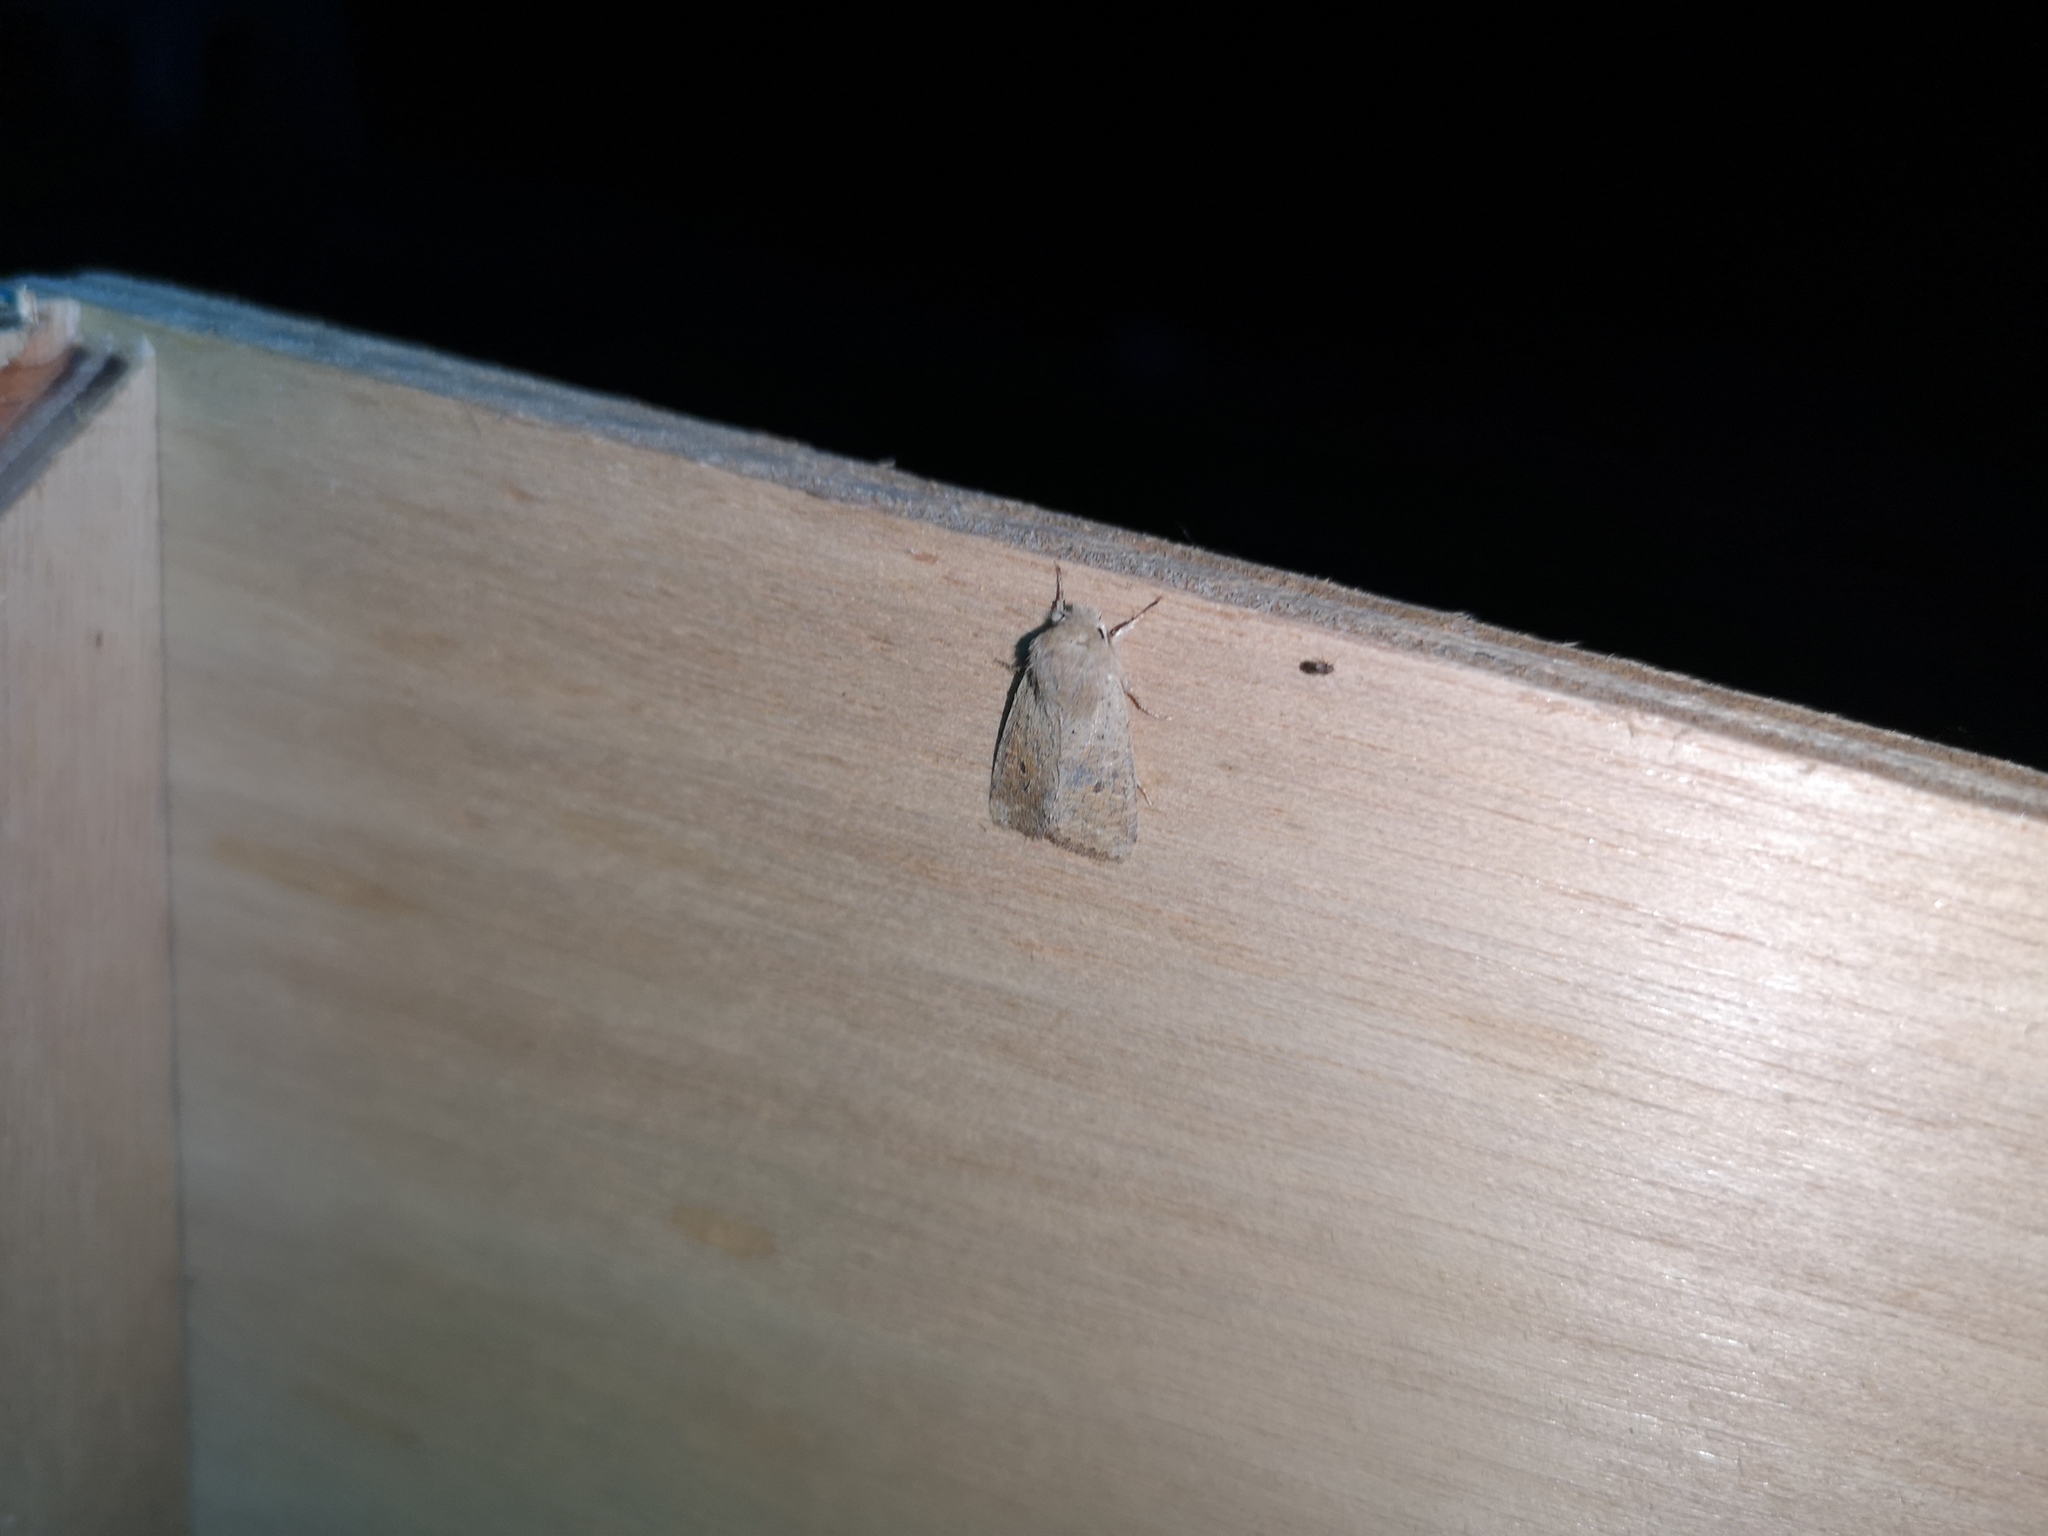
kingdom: Animalia
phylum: Arthropoda
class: Insecta
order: Lepidoptera
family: Noctuidae
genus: Orthosia
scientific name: Orthosia cruda
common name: Small quaker
